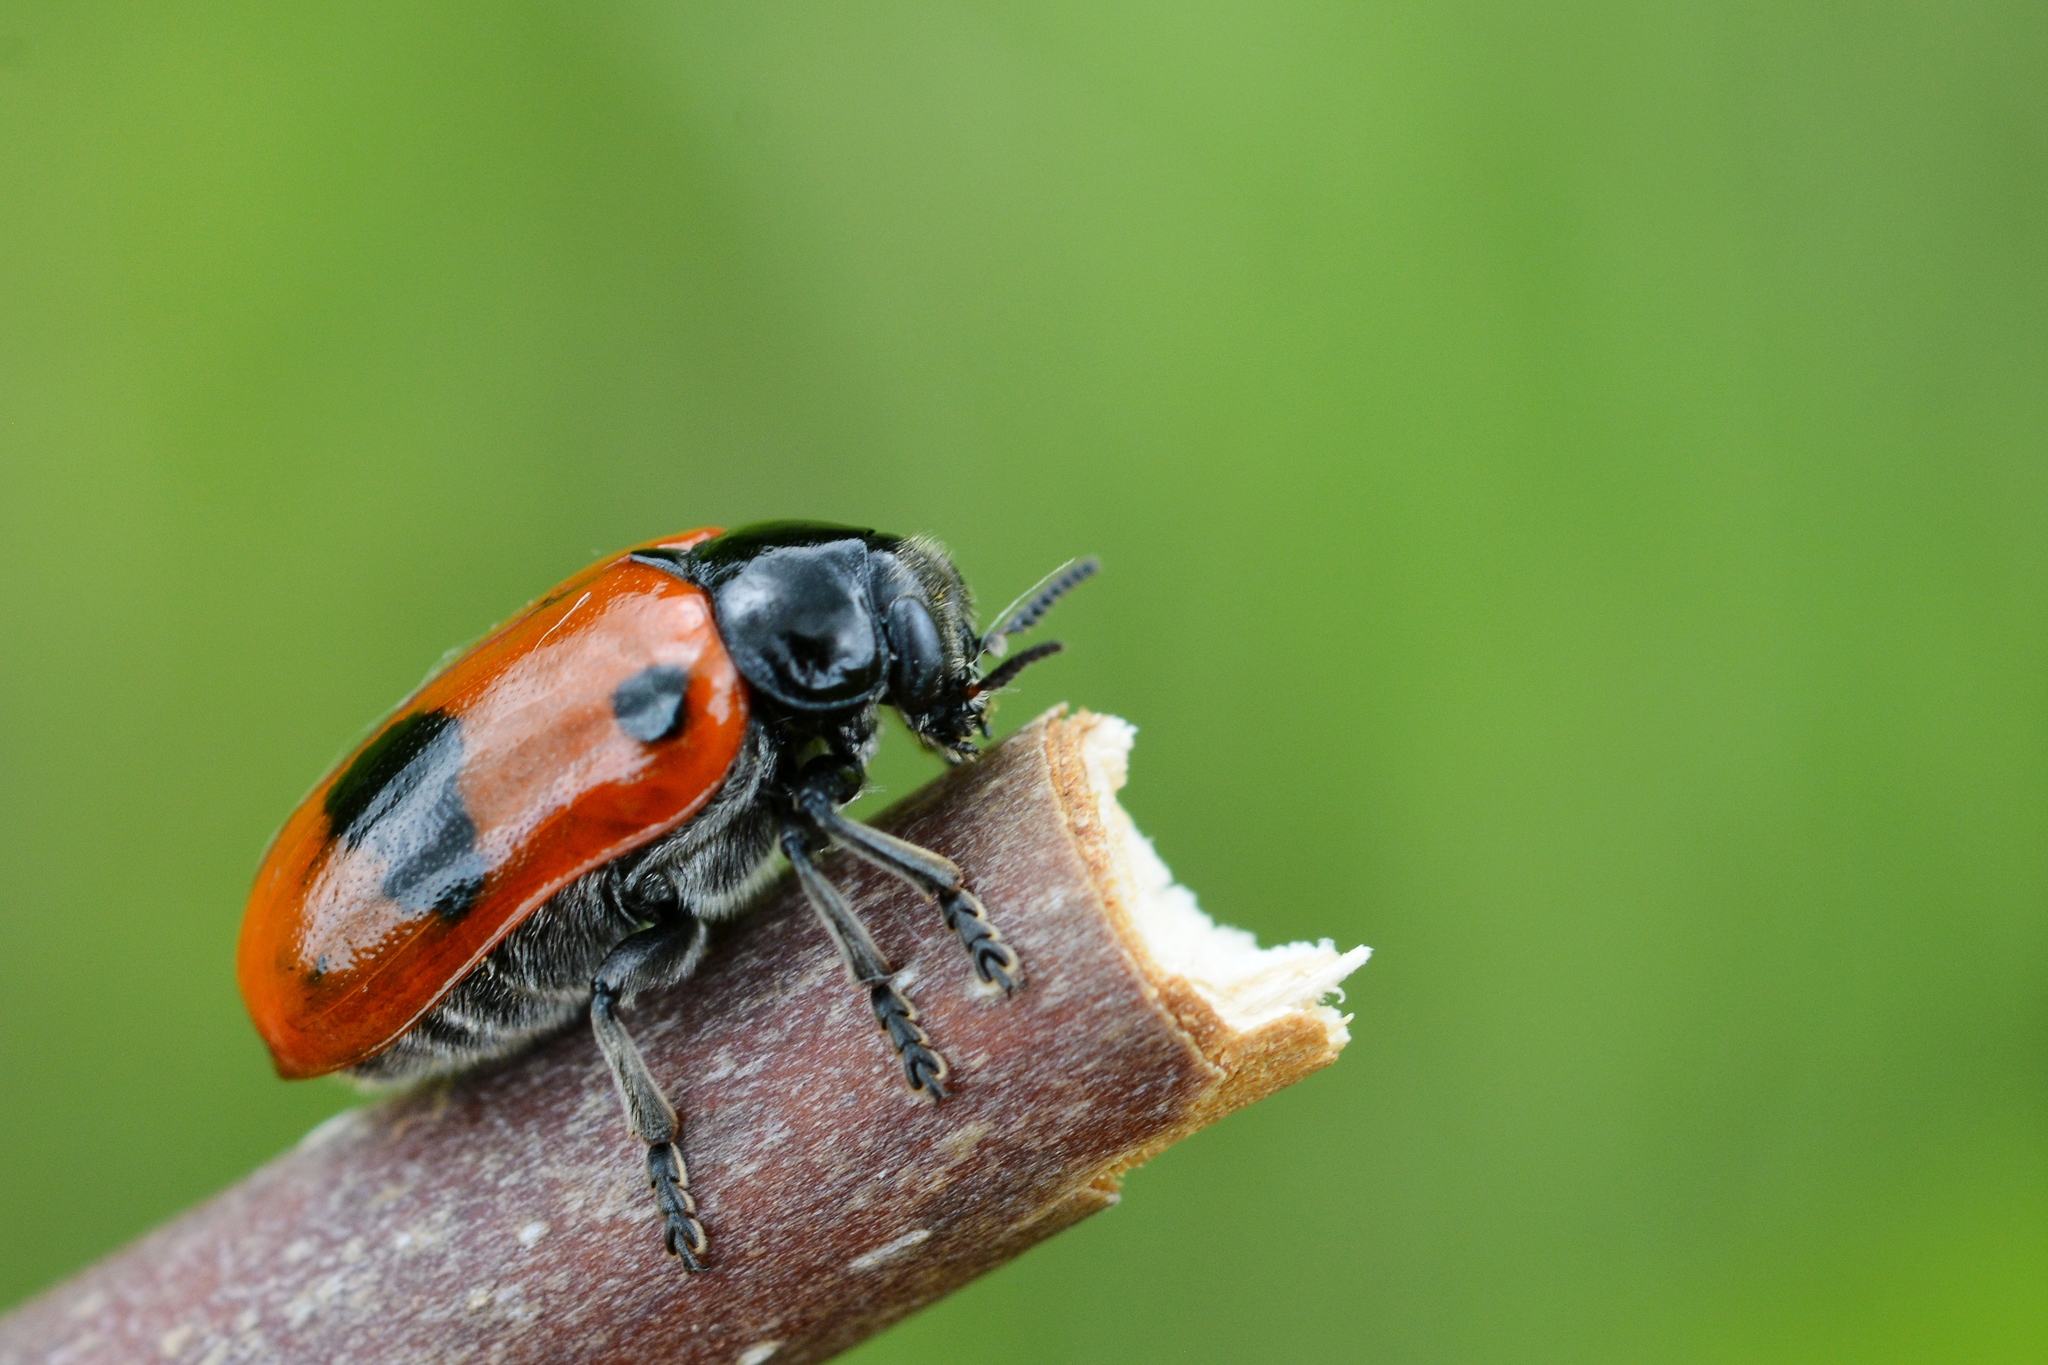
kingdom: Animalia
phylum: Arthropoda
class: Insecta
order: Coleoptera
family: Chrysomelidae
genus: Clytra
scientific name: Clytra laeviuscula
